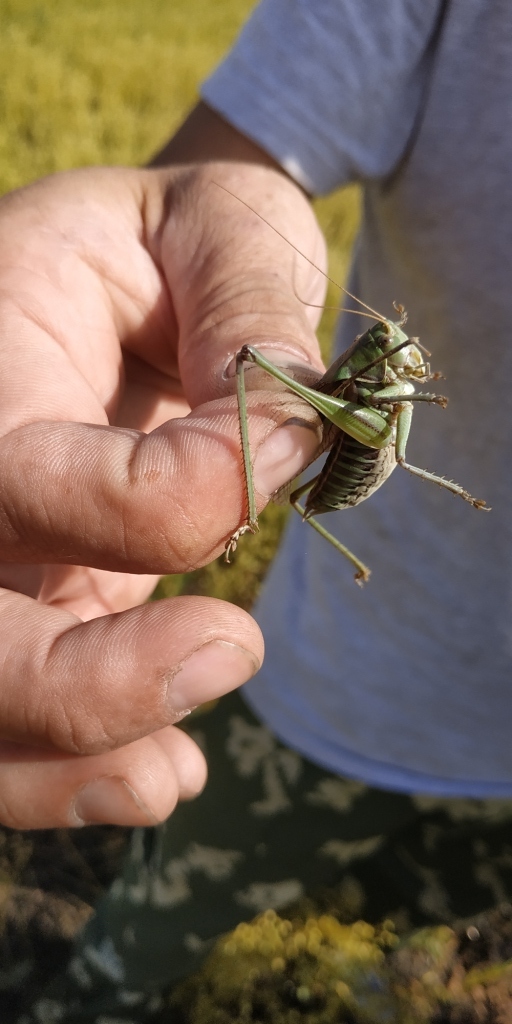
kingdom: Animalia
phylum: Arthropoda
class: Insecta
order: Orthoptera
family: Tettigoniidae
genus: Gampsocleis
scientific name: Gampsocleis sedakovii
